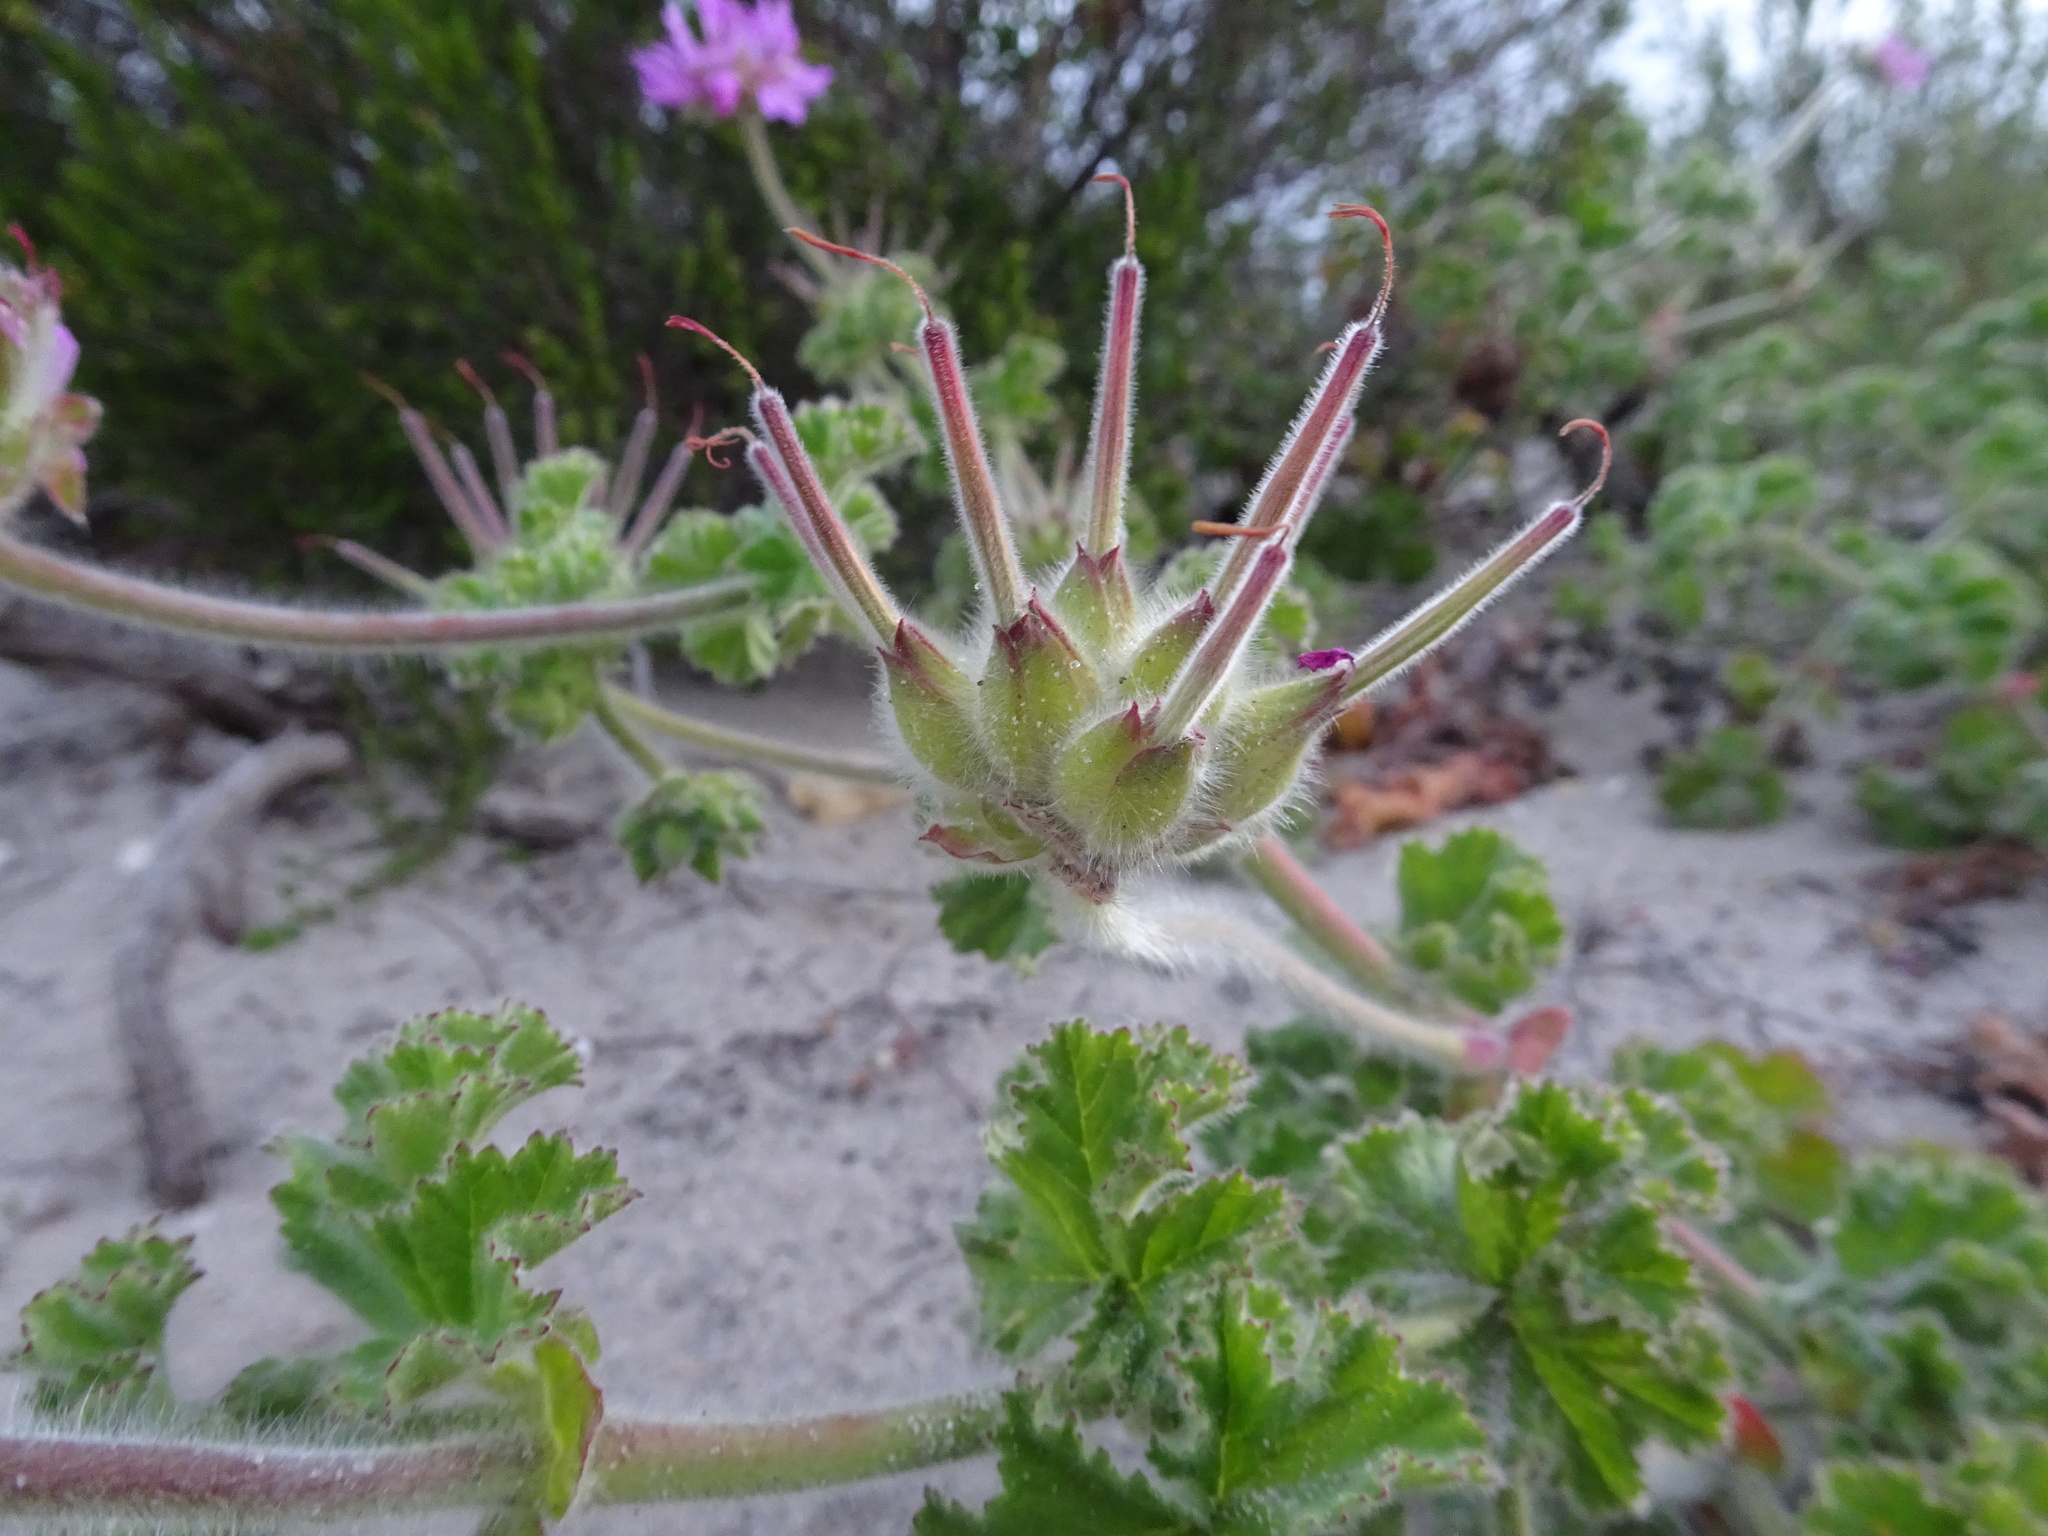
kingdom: Plantae
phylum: Tracheophyta
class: Magnoliopsida
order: Geraniales
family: Geraniaceae
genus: Pelargonium
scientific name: Pelargonium capitatum
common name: Rose scented geranium
